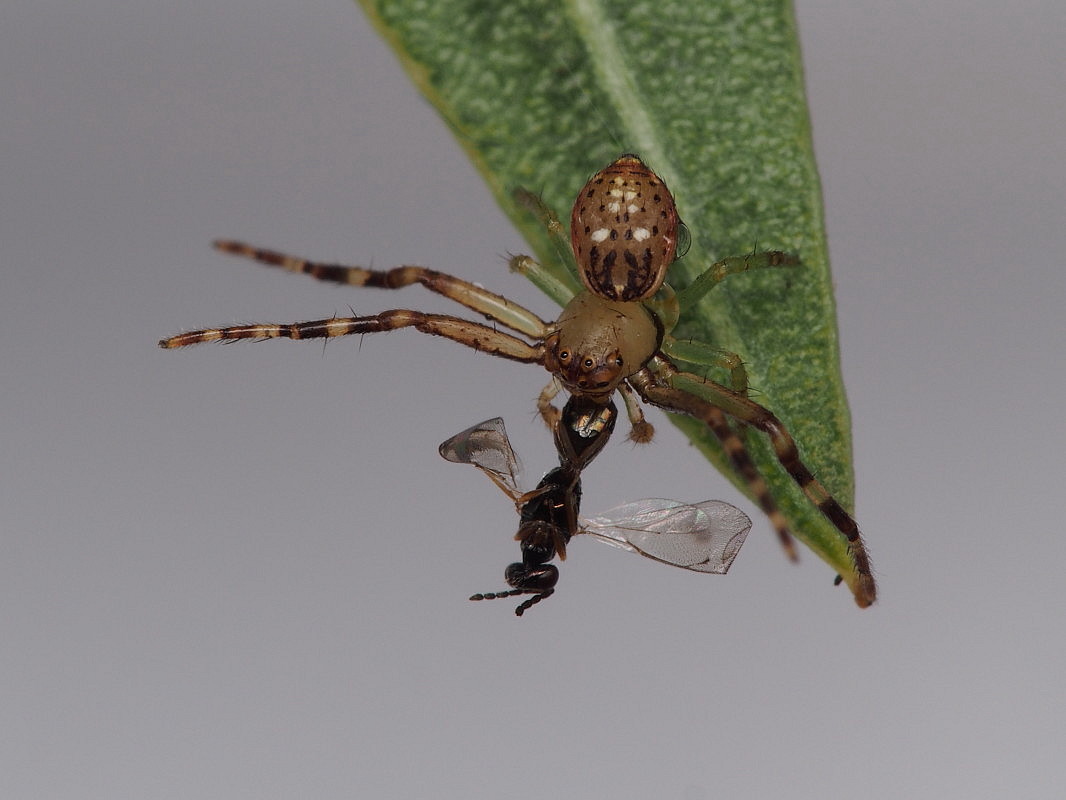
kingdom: Animalia
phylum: Arthropoda
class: Arachnida
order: Araneae
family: Thomisidae
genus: Diaea
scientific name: Diaea ambara
